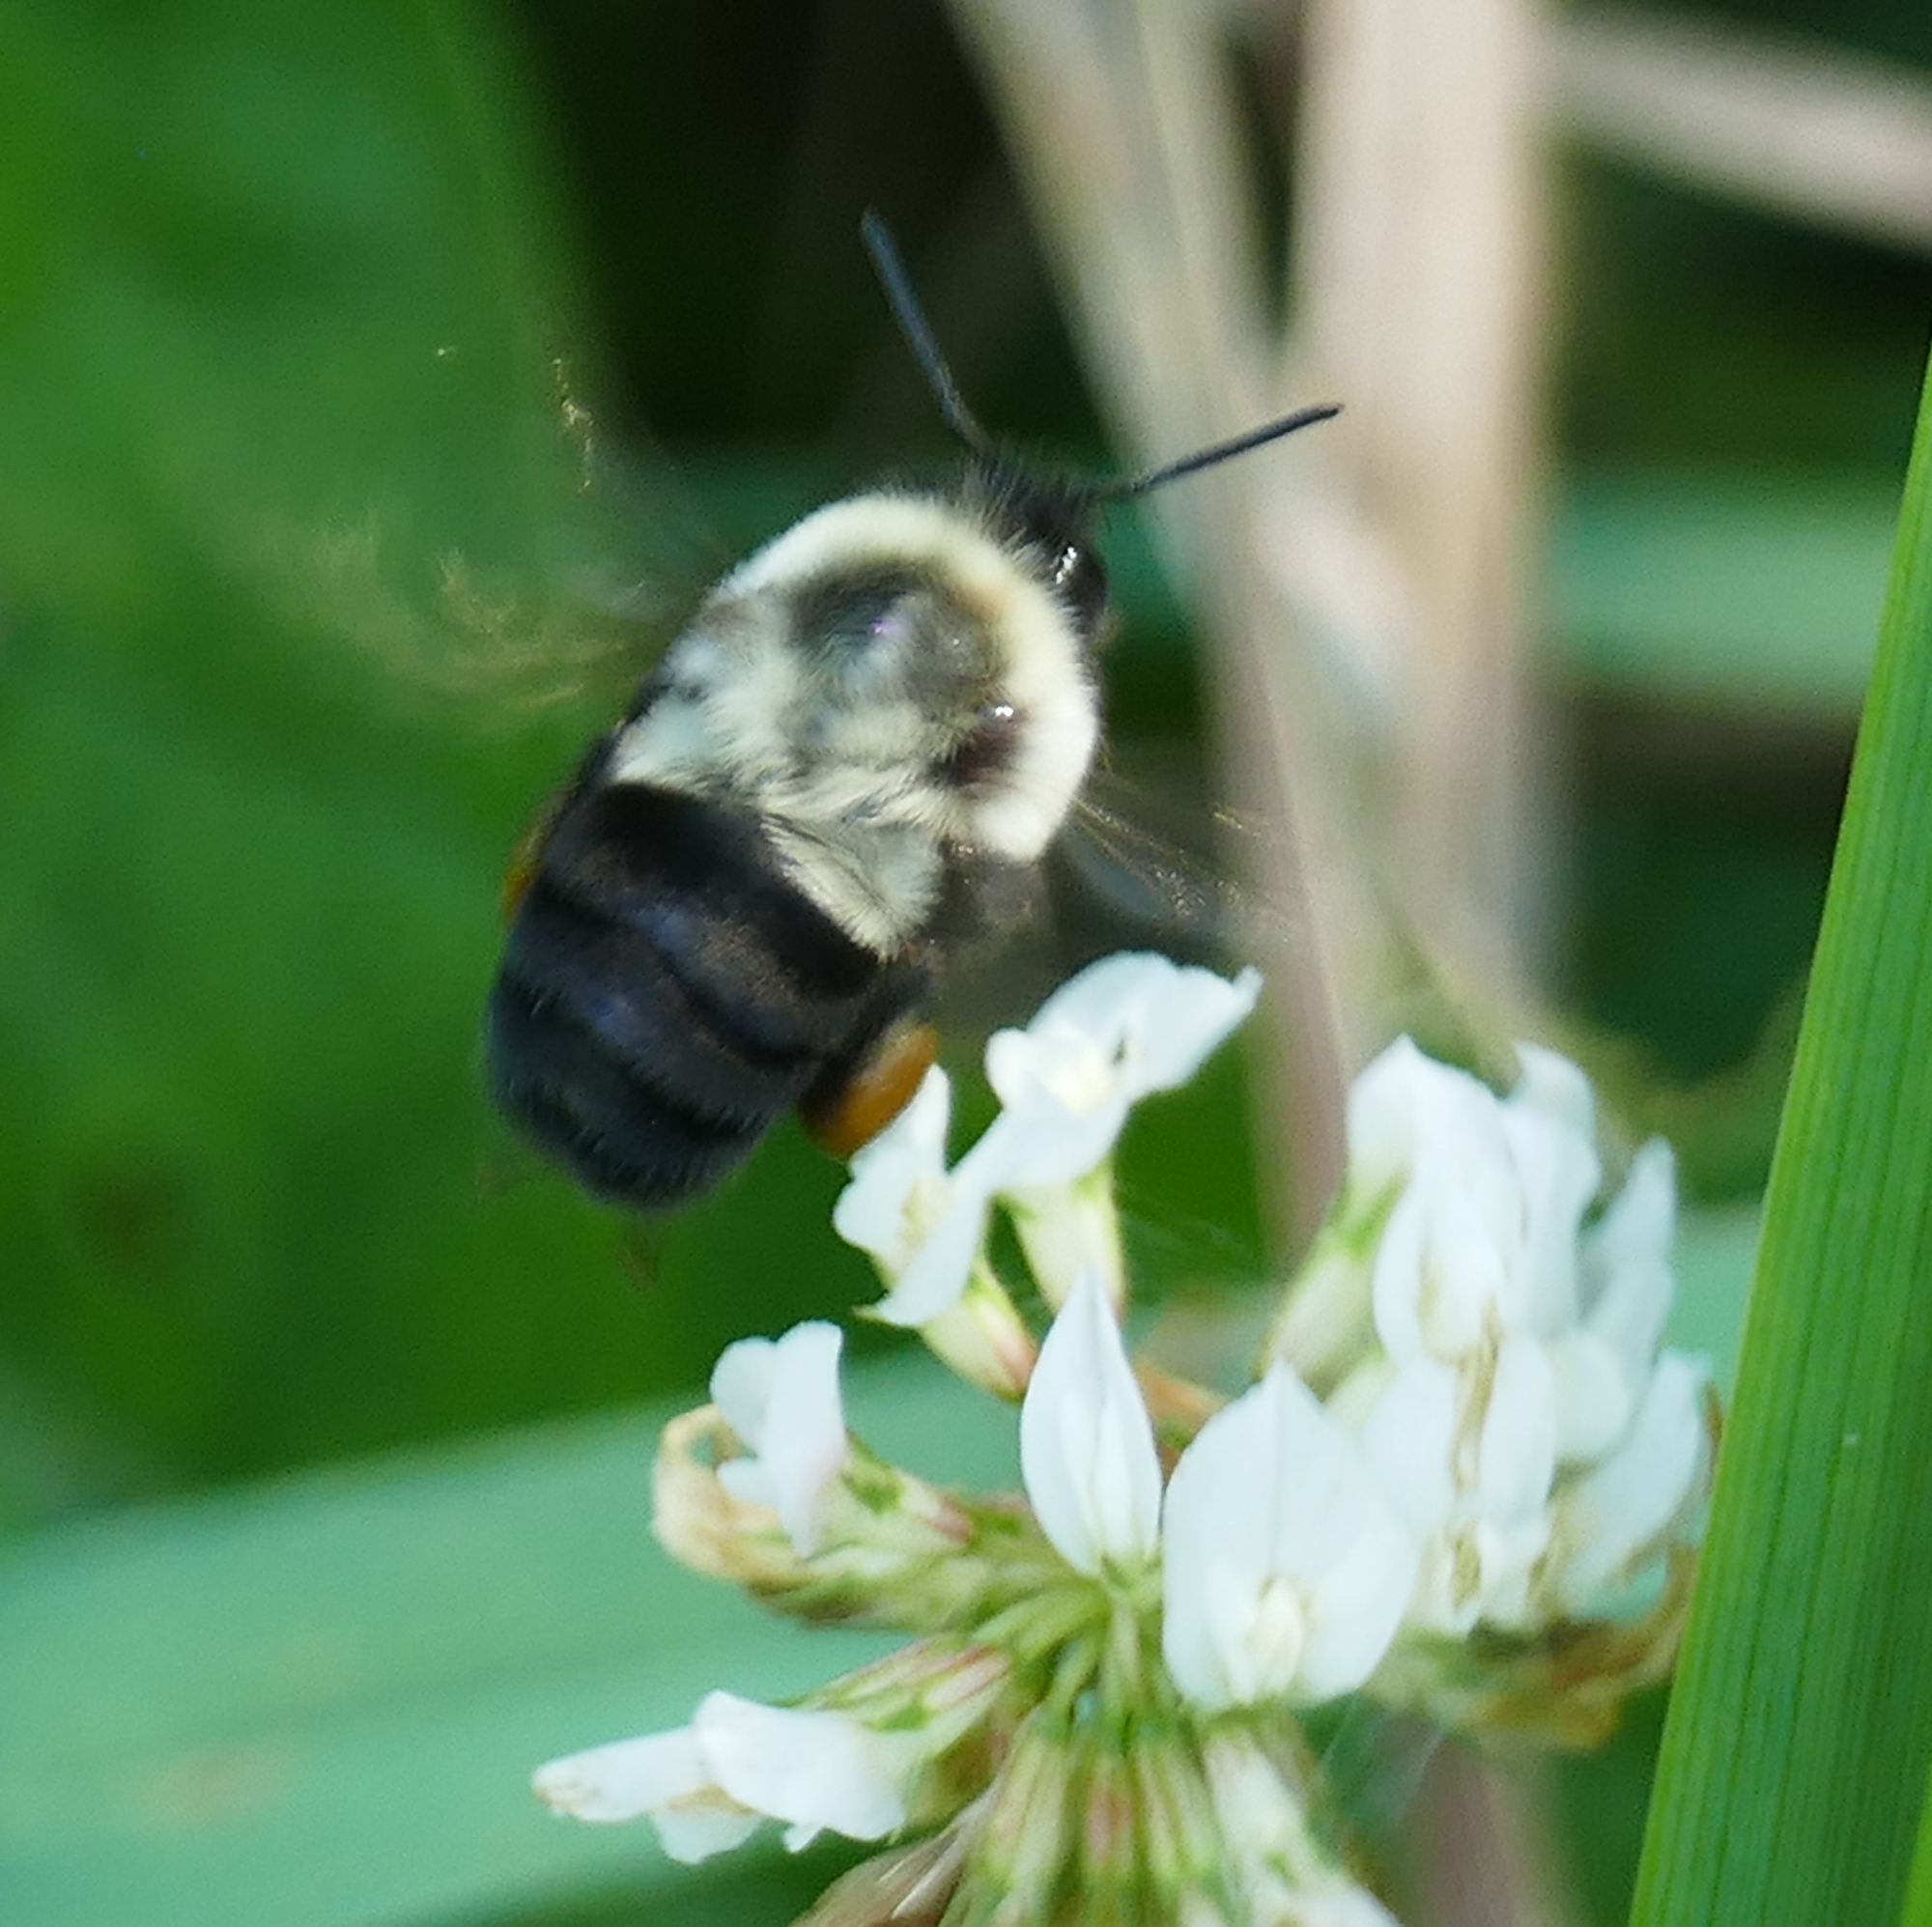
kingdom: Animalia
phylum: Arthropoda
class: Insecta
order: Hymenoptera
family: Apidae
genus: Bombus
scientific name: Bombus impatiens
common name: Common eastern bumble bee
